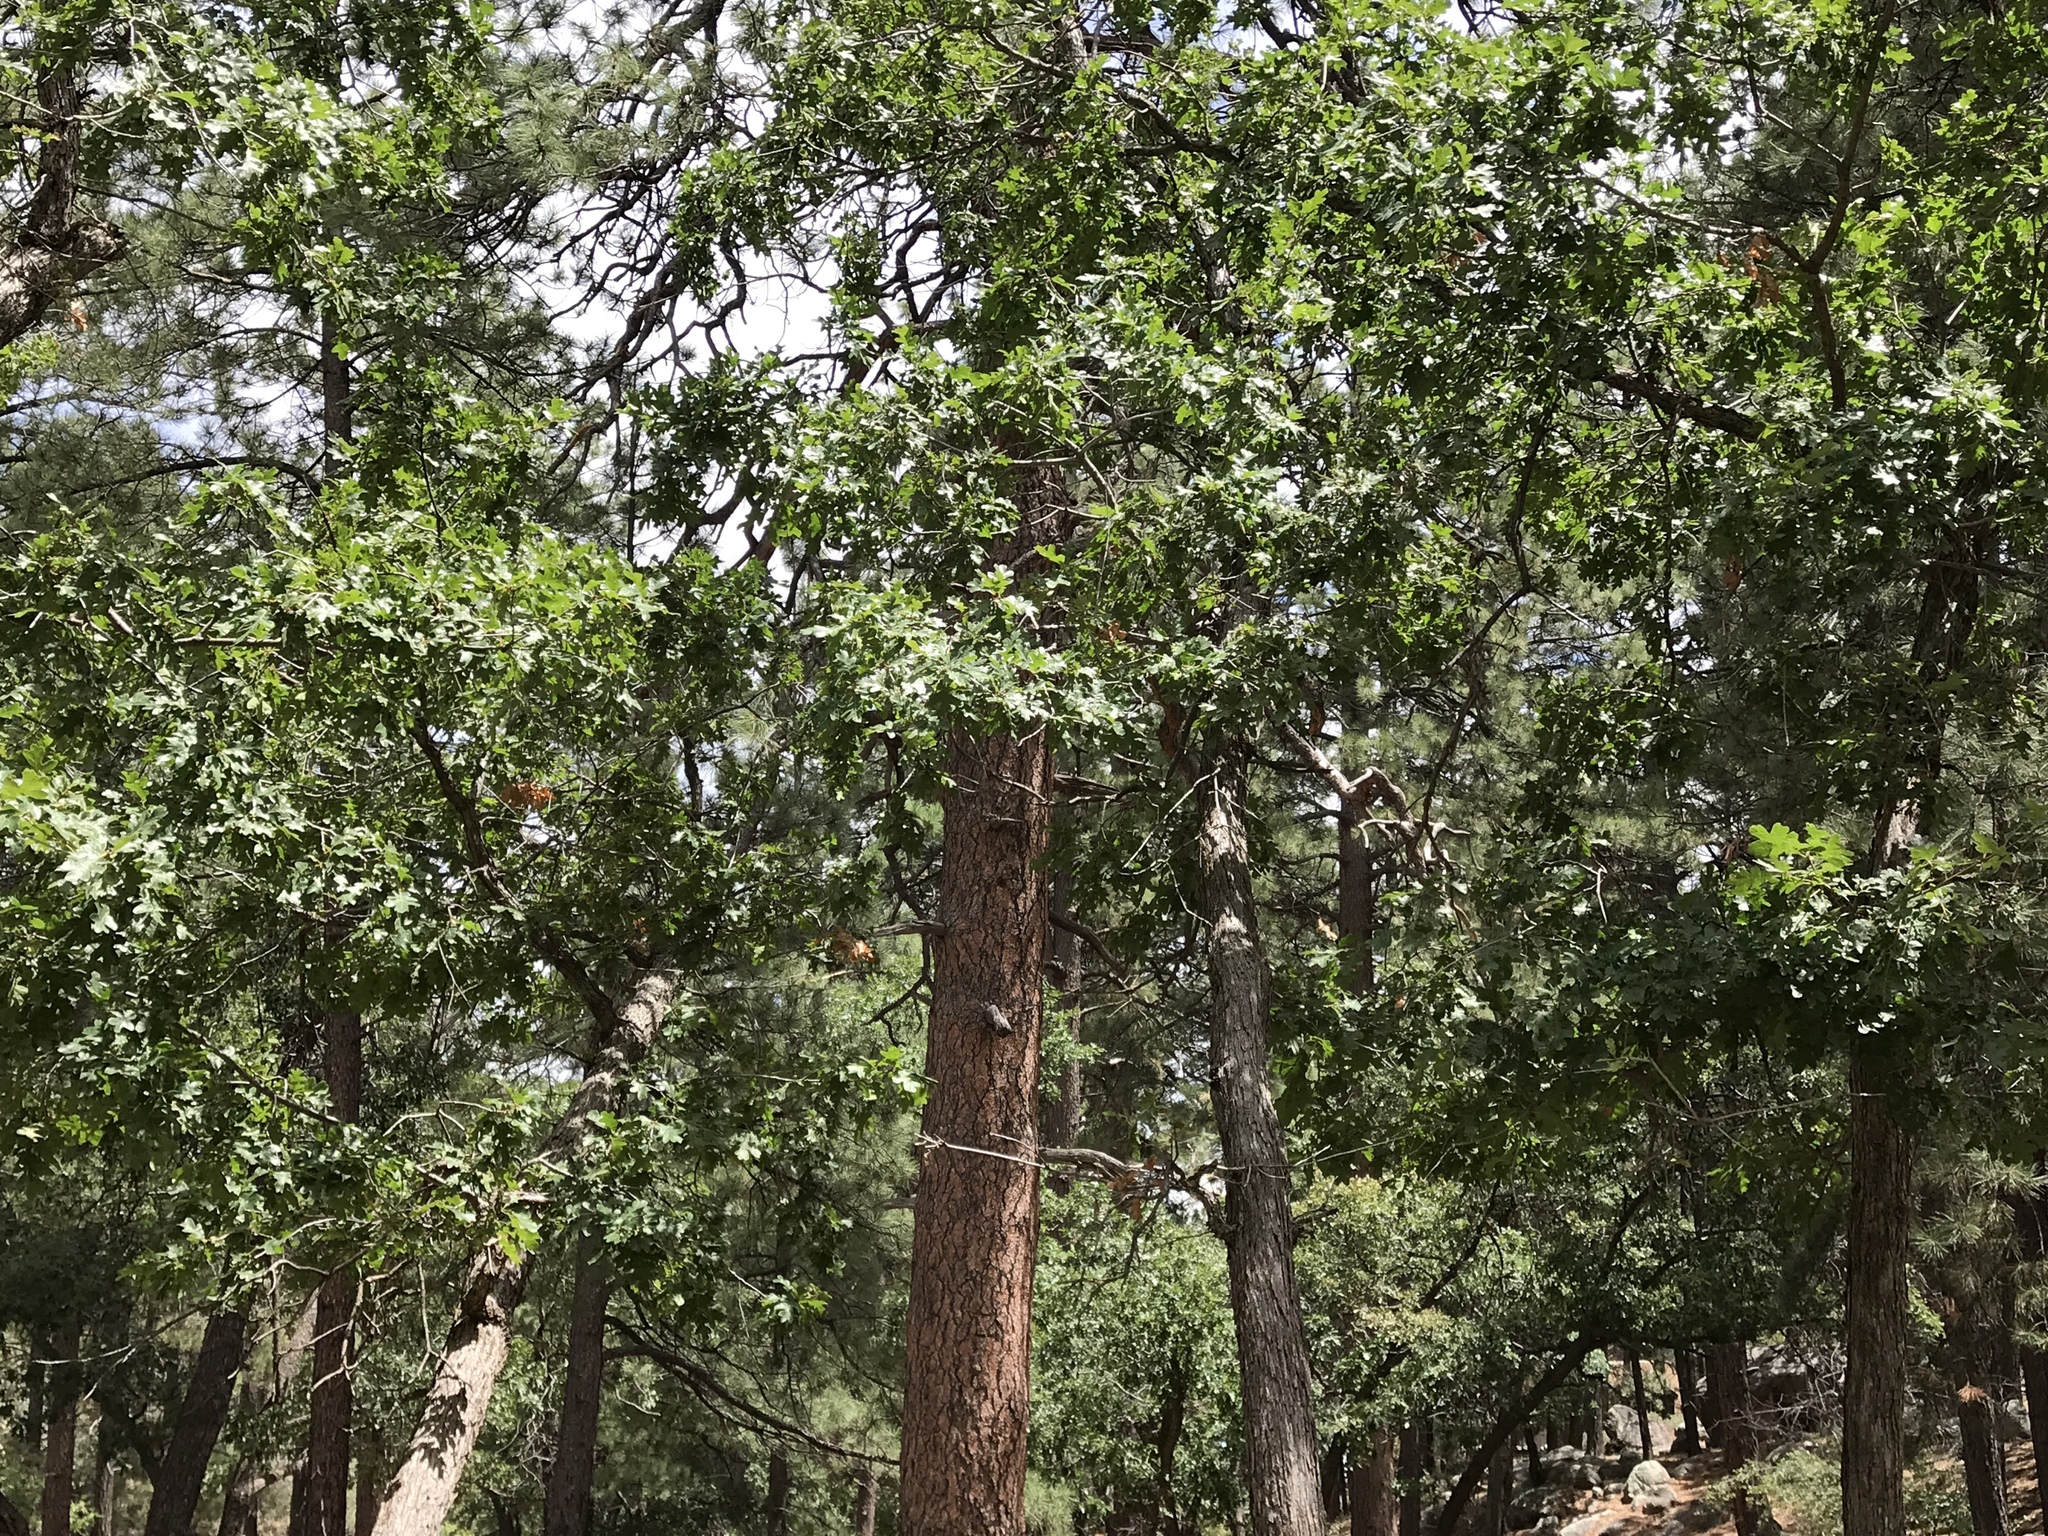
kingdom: Plantae
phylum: Tracheophyta
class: Magnoliopsida
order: Fagales
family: Fagaceae
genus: Quercus
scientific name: Quercus gambelii
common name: Gambel oak
